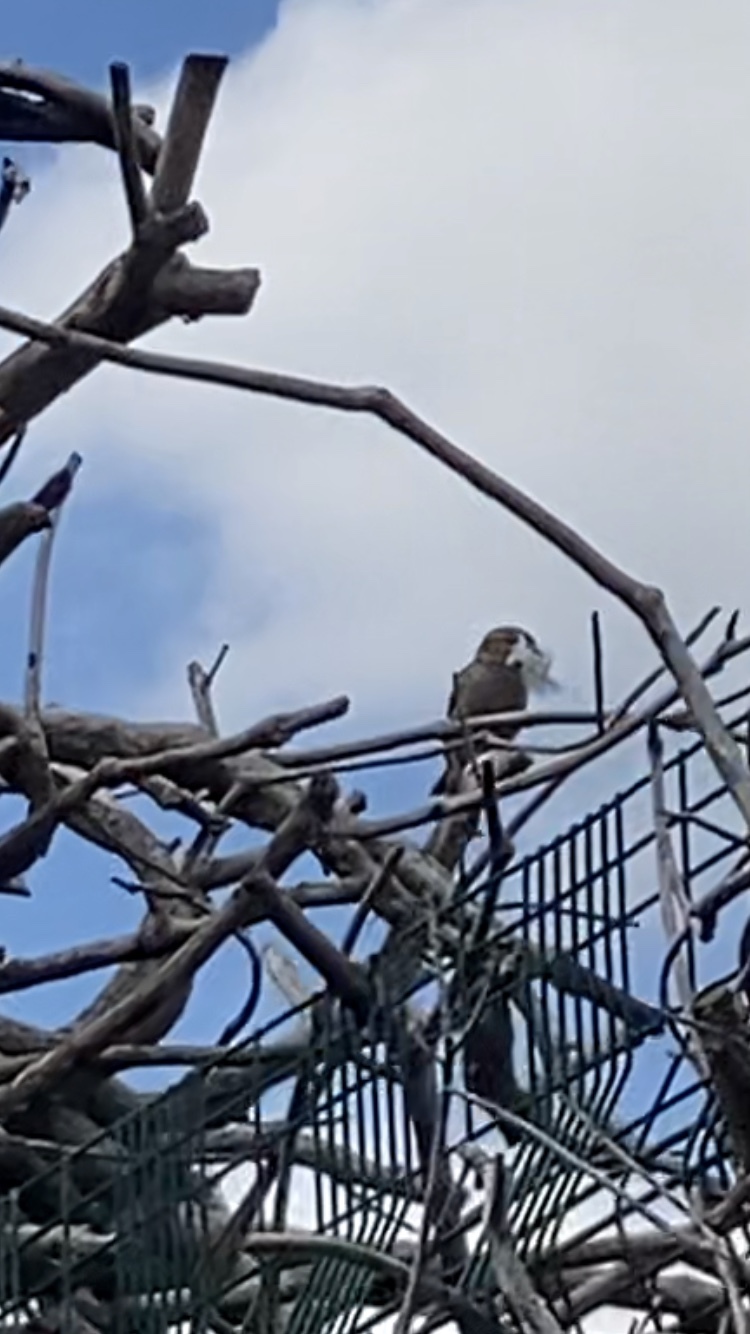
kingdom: Animalia
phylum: Chordata
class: Aves
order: Passeriformes
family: Passeridae
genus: Passer
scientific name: Passer domesticus
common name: House sparrow
